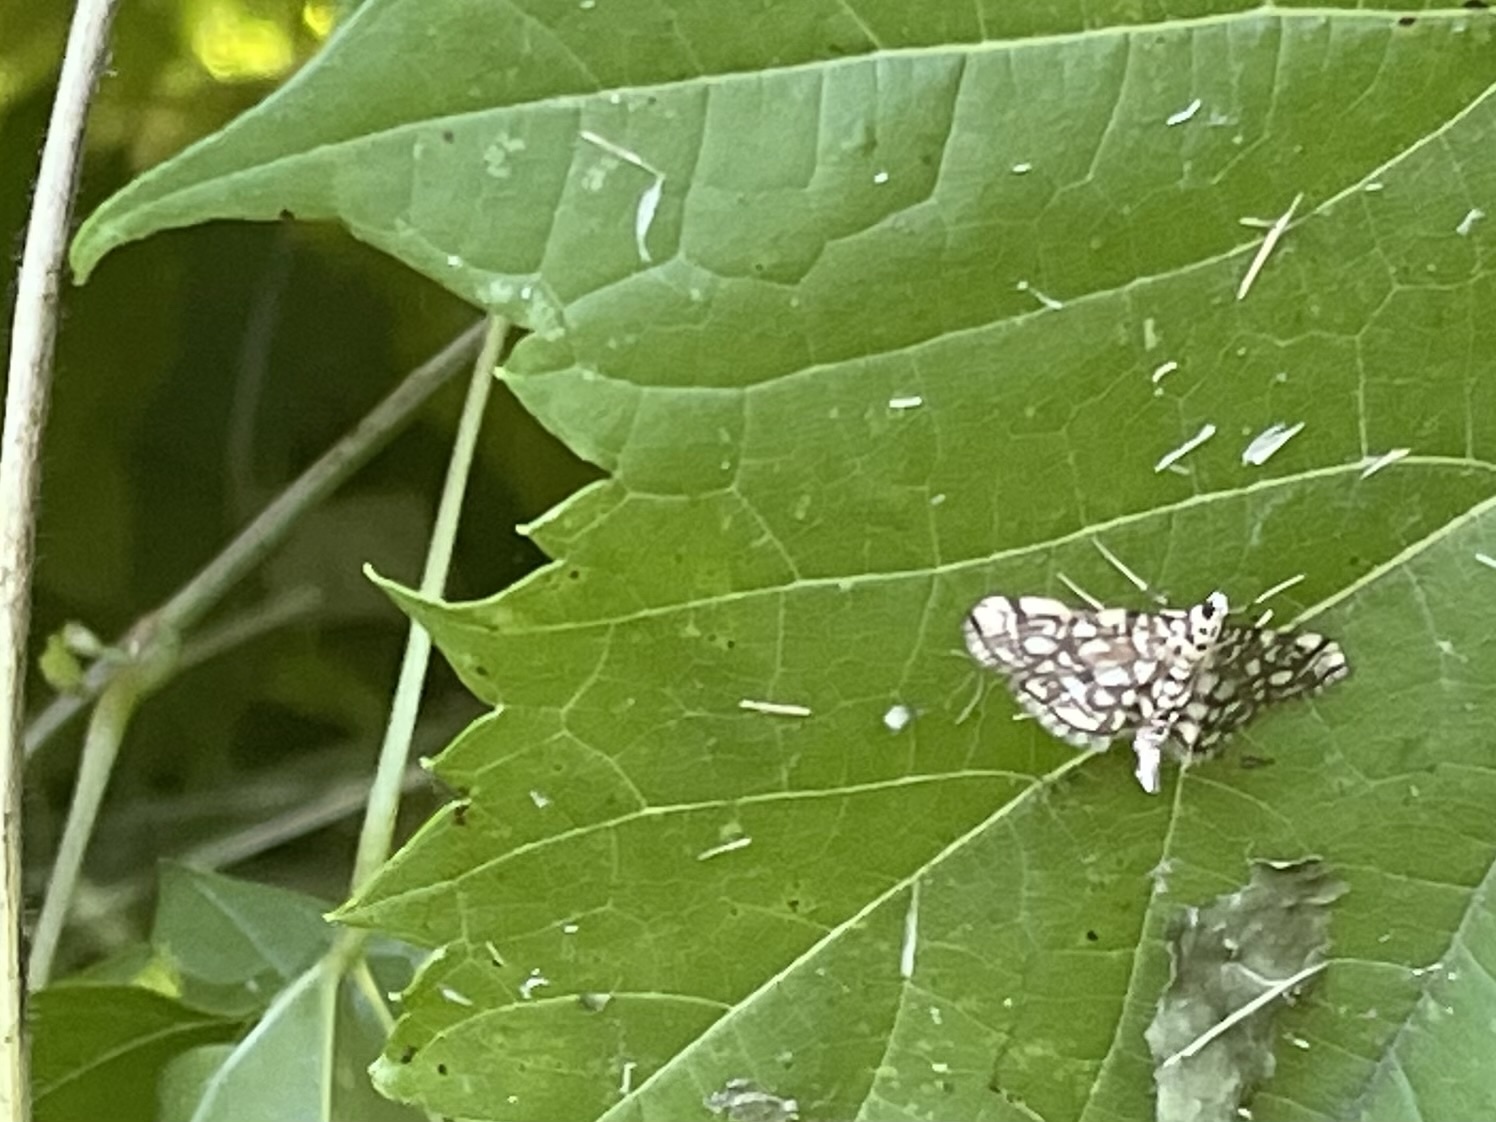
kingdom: Animalia
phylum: Arthropoda
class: Insecta
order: Lepidoptera
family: Crambidae
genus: Lygropia
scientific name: Lygropia rivulalis
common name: Bog lygropia moth
